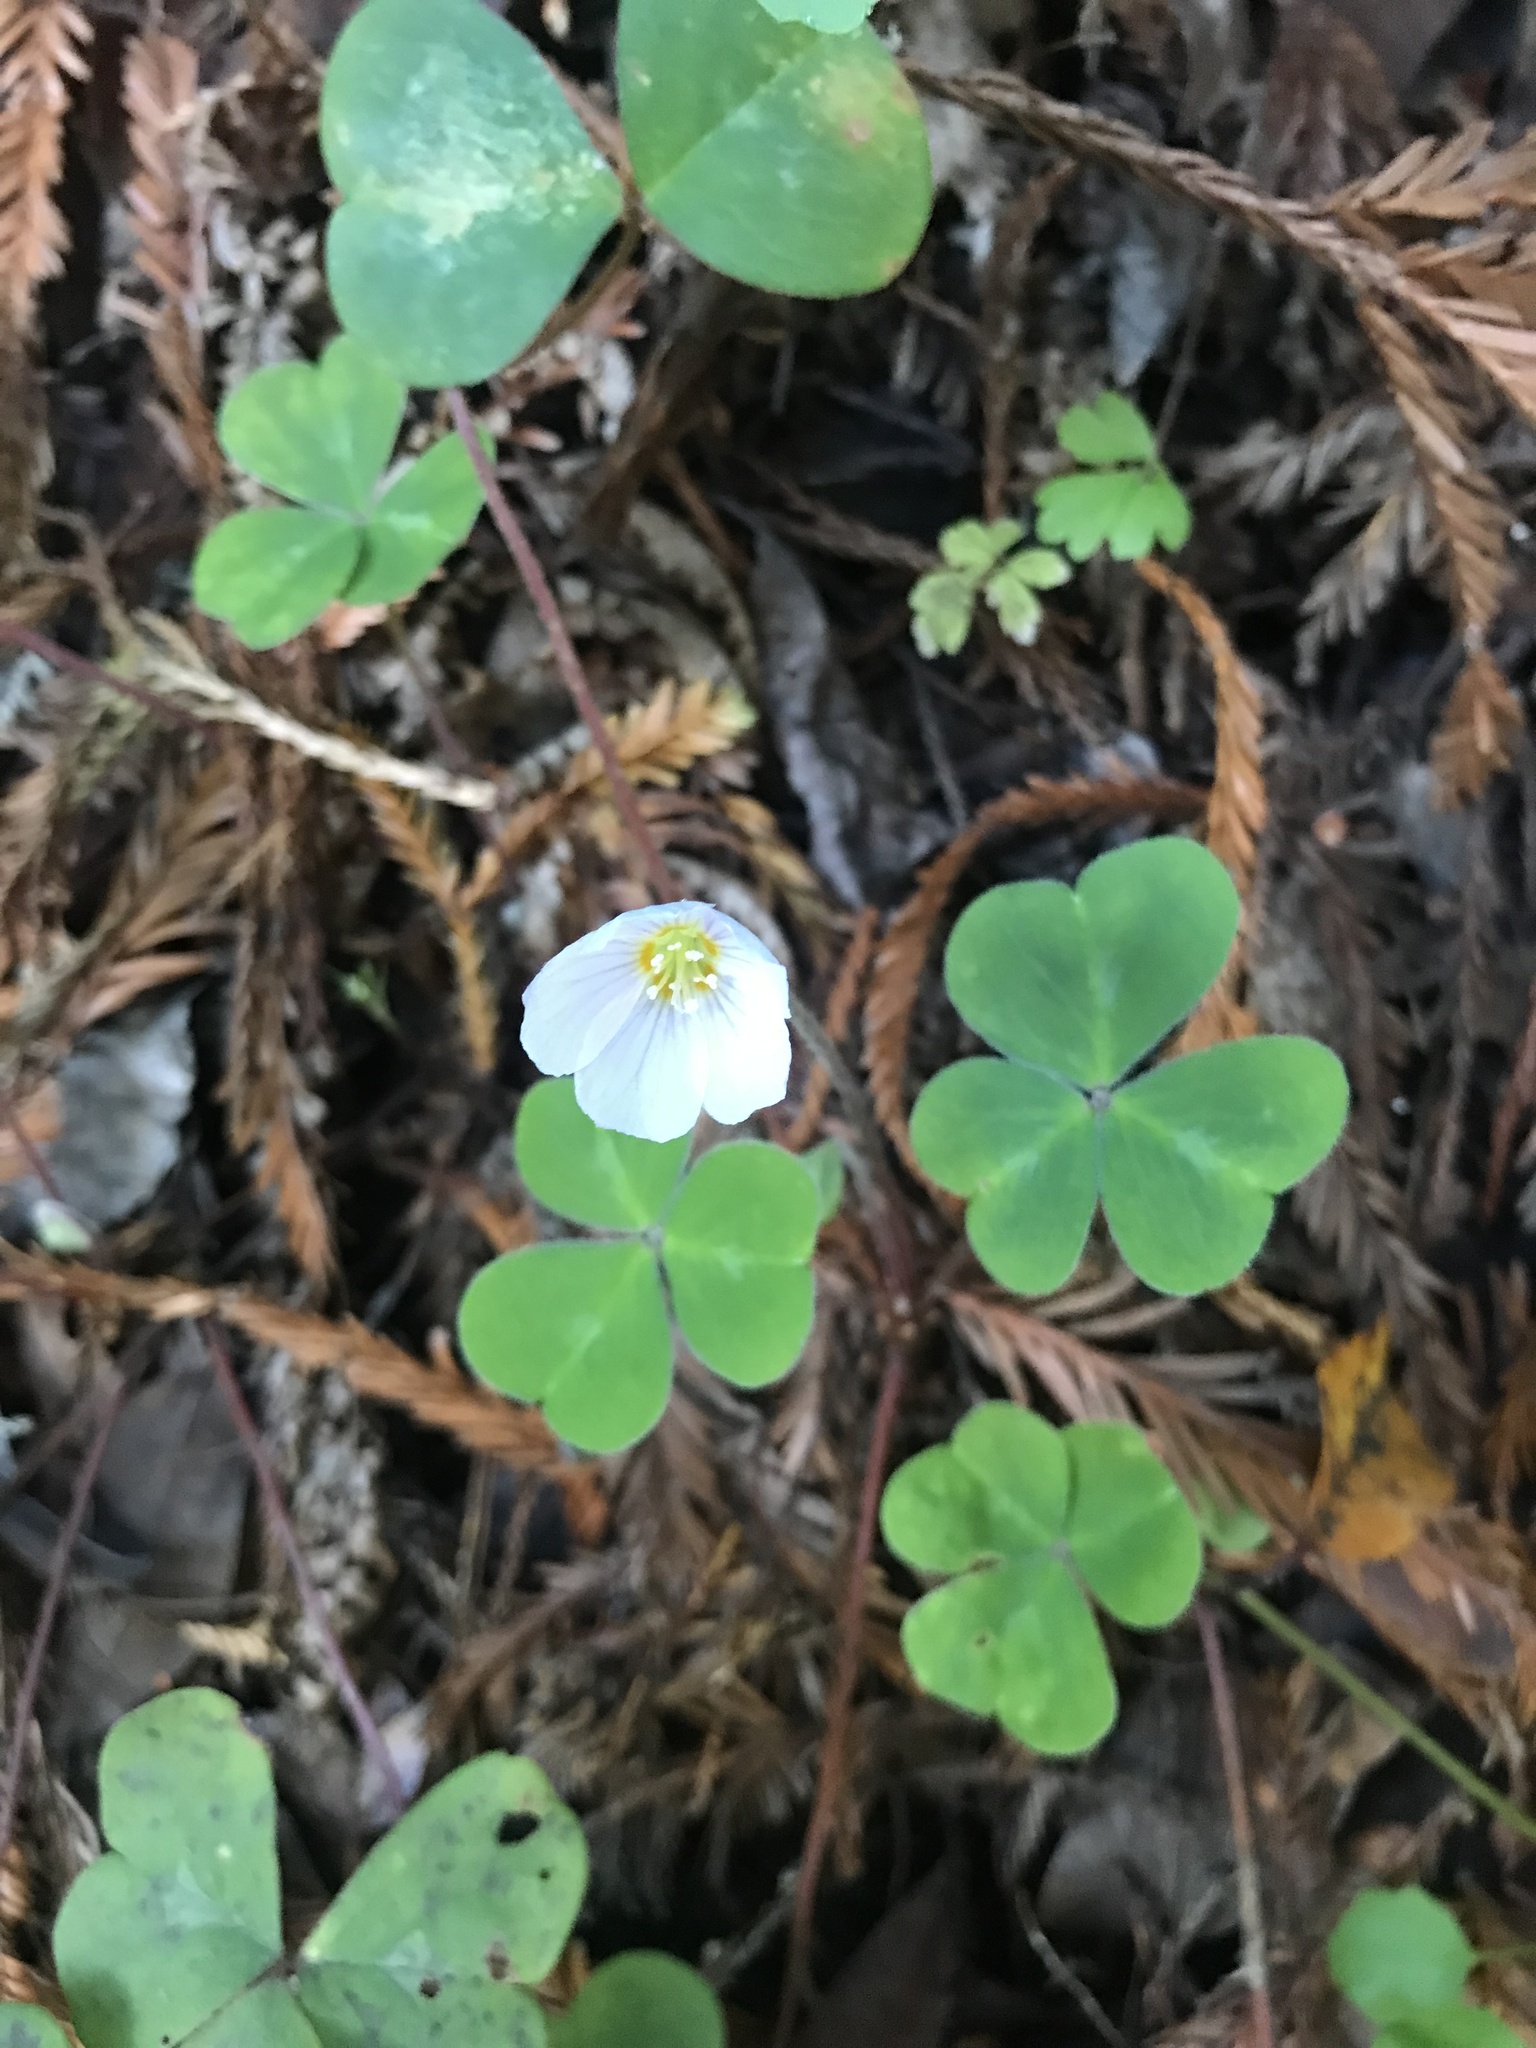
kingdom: Plantae
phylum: Tracheophyta
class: Magnoliopsida
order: Oxalidales
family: Oxalidaceae
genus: Oxalis
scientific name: Oxalis oregana
